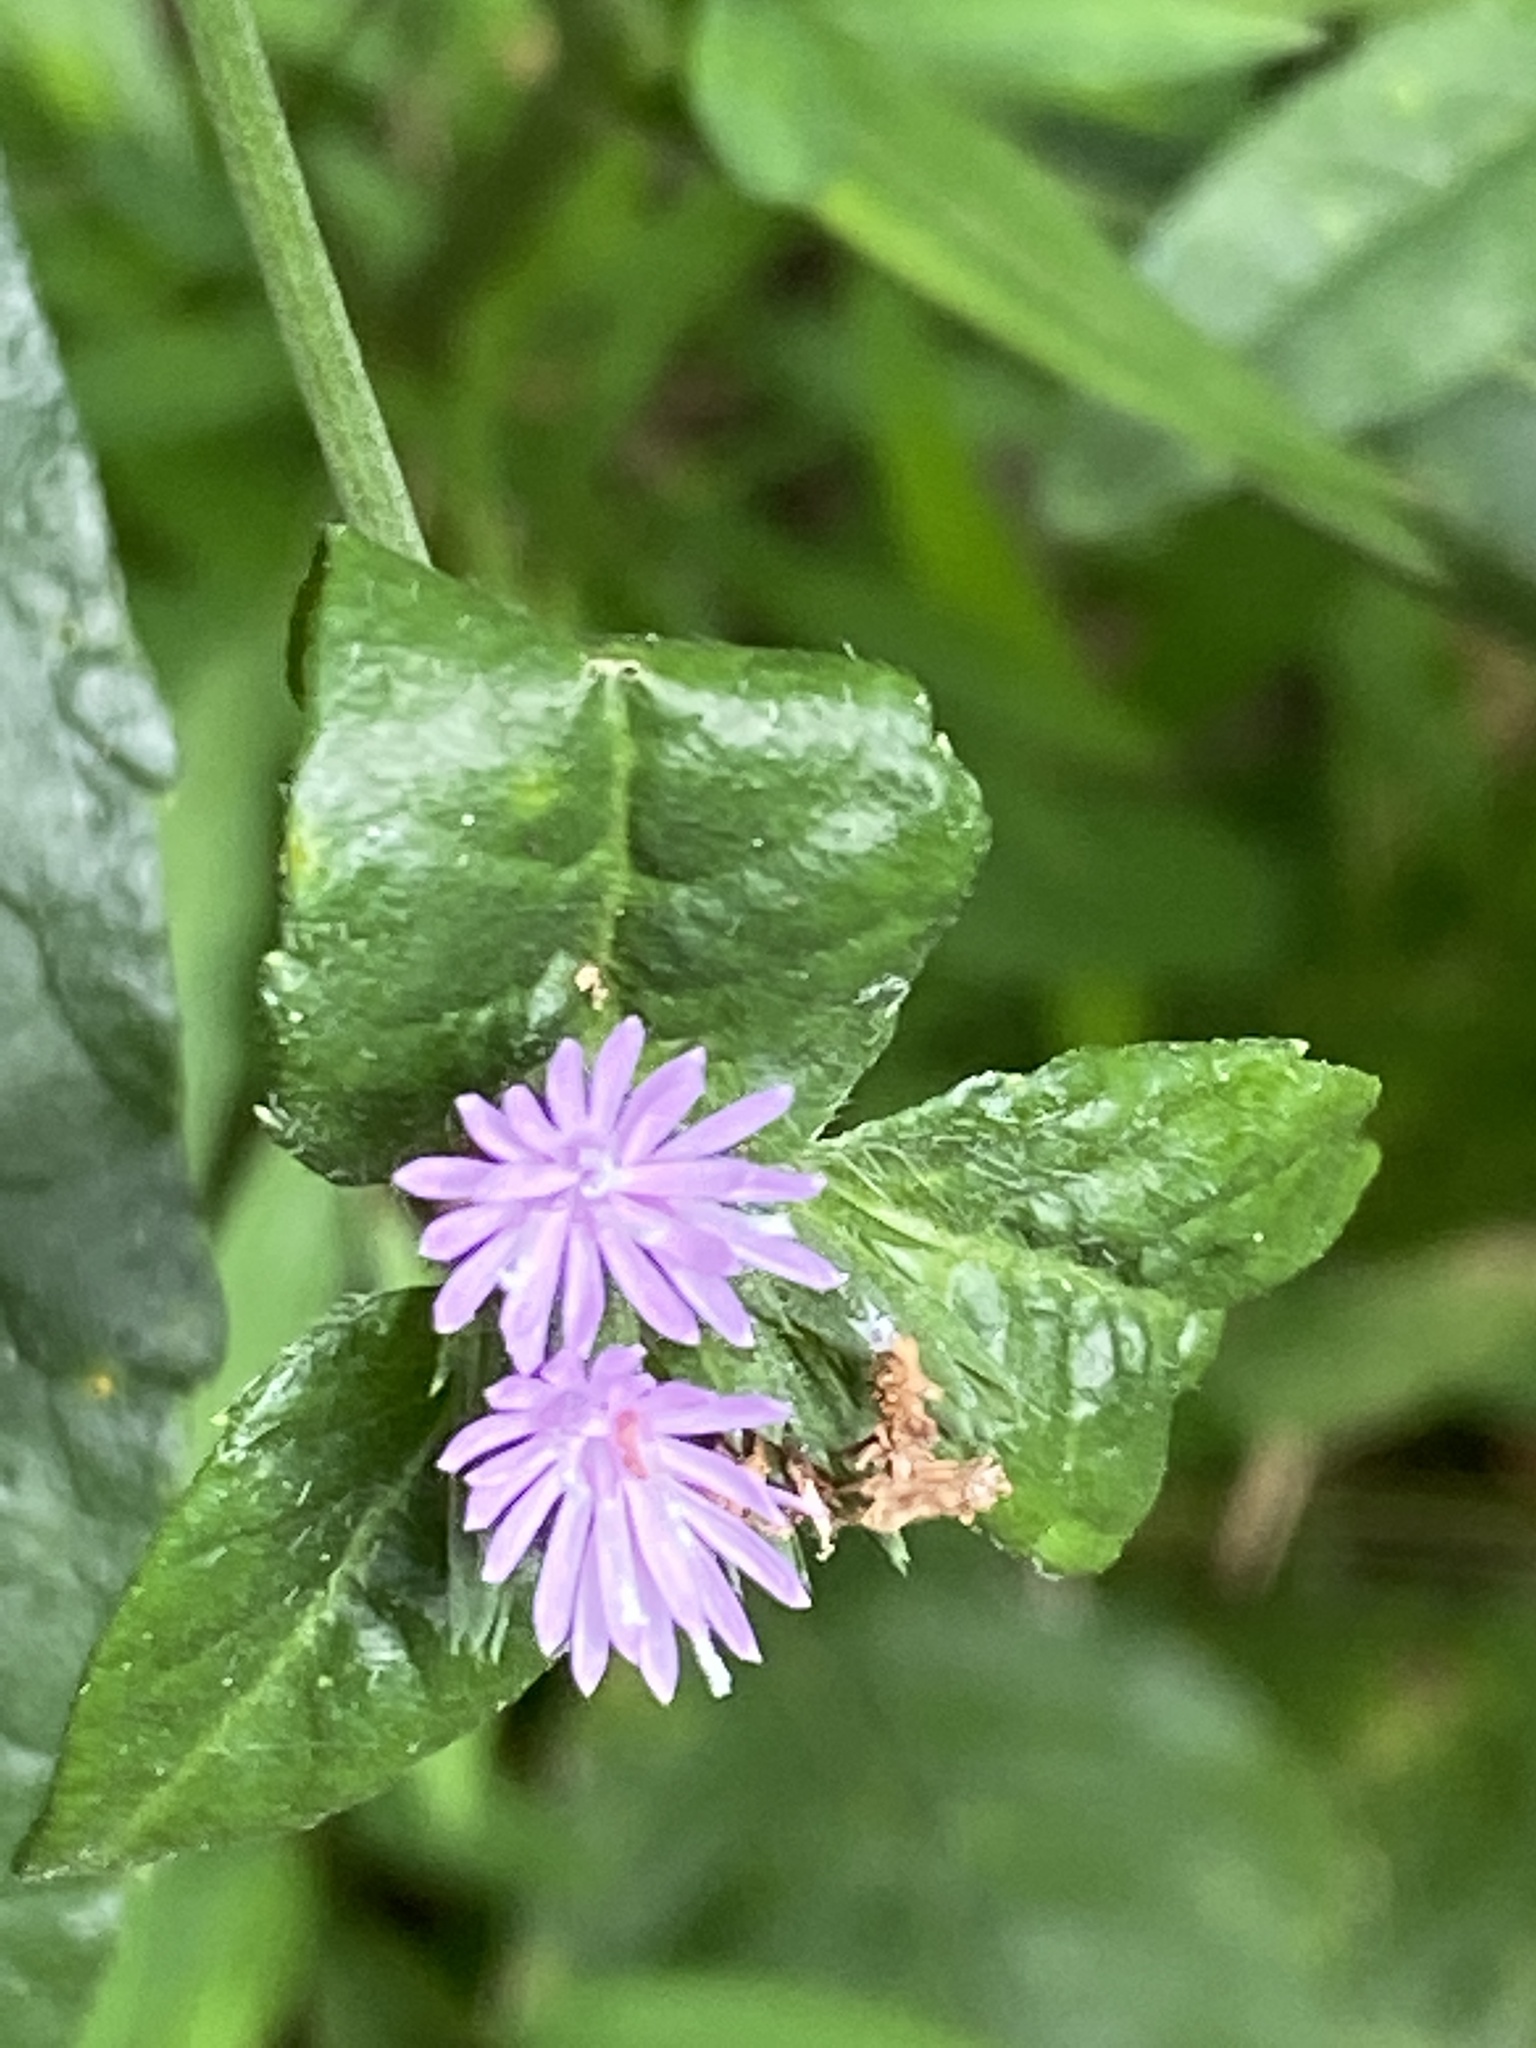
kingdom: Plantae
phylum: Tracheophyta
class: Magnoliopsida
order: Asterales
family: Asteraceae
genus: Elephantopus
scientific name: Elephantopus carolinianus
